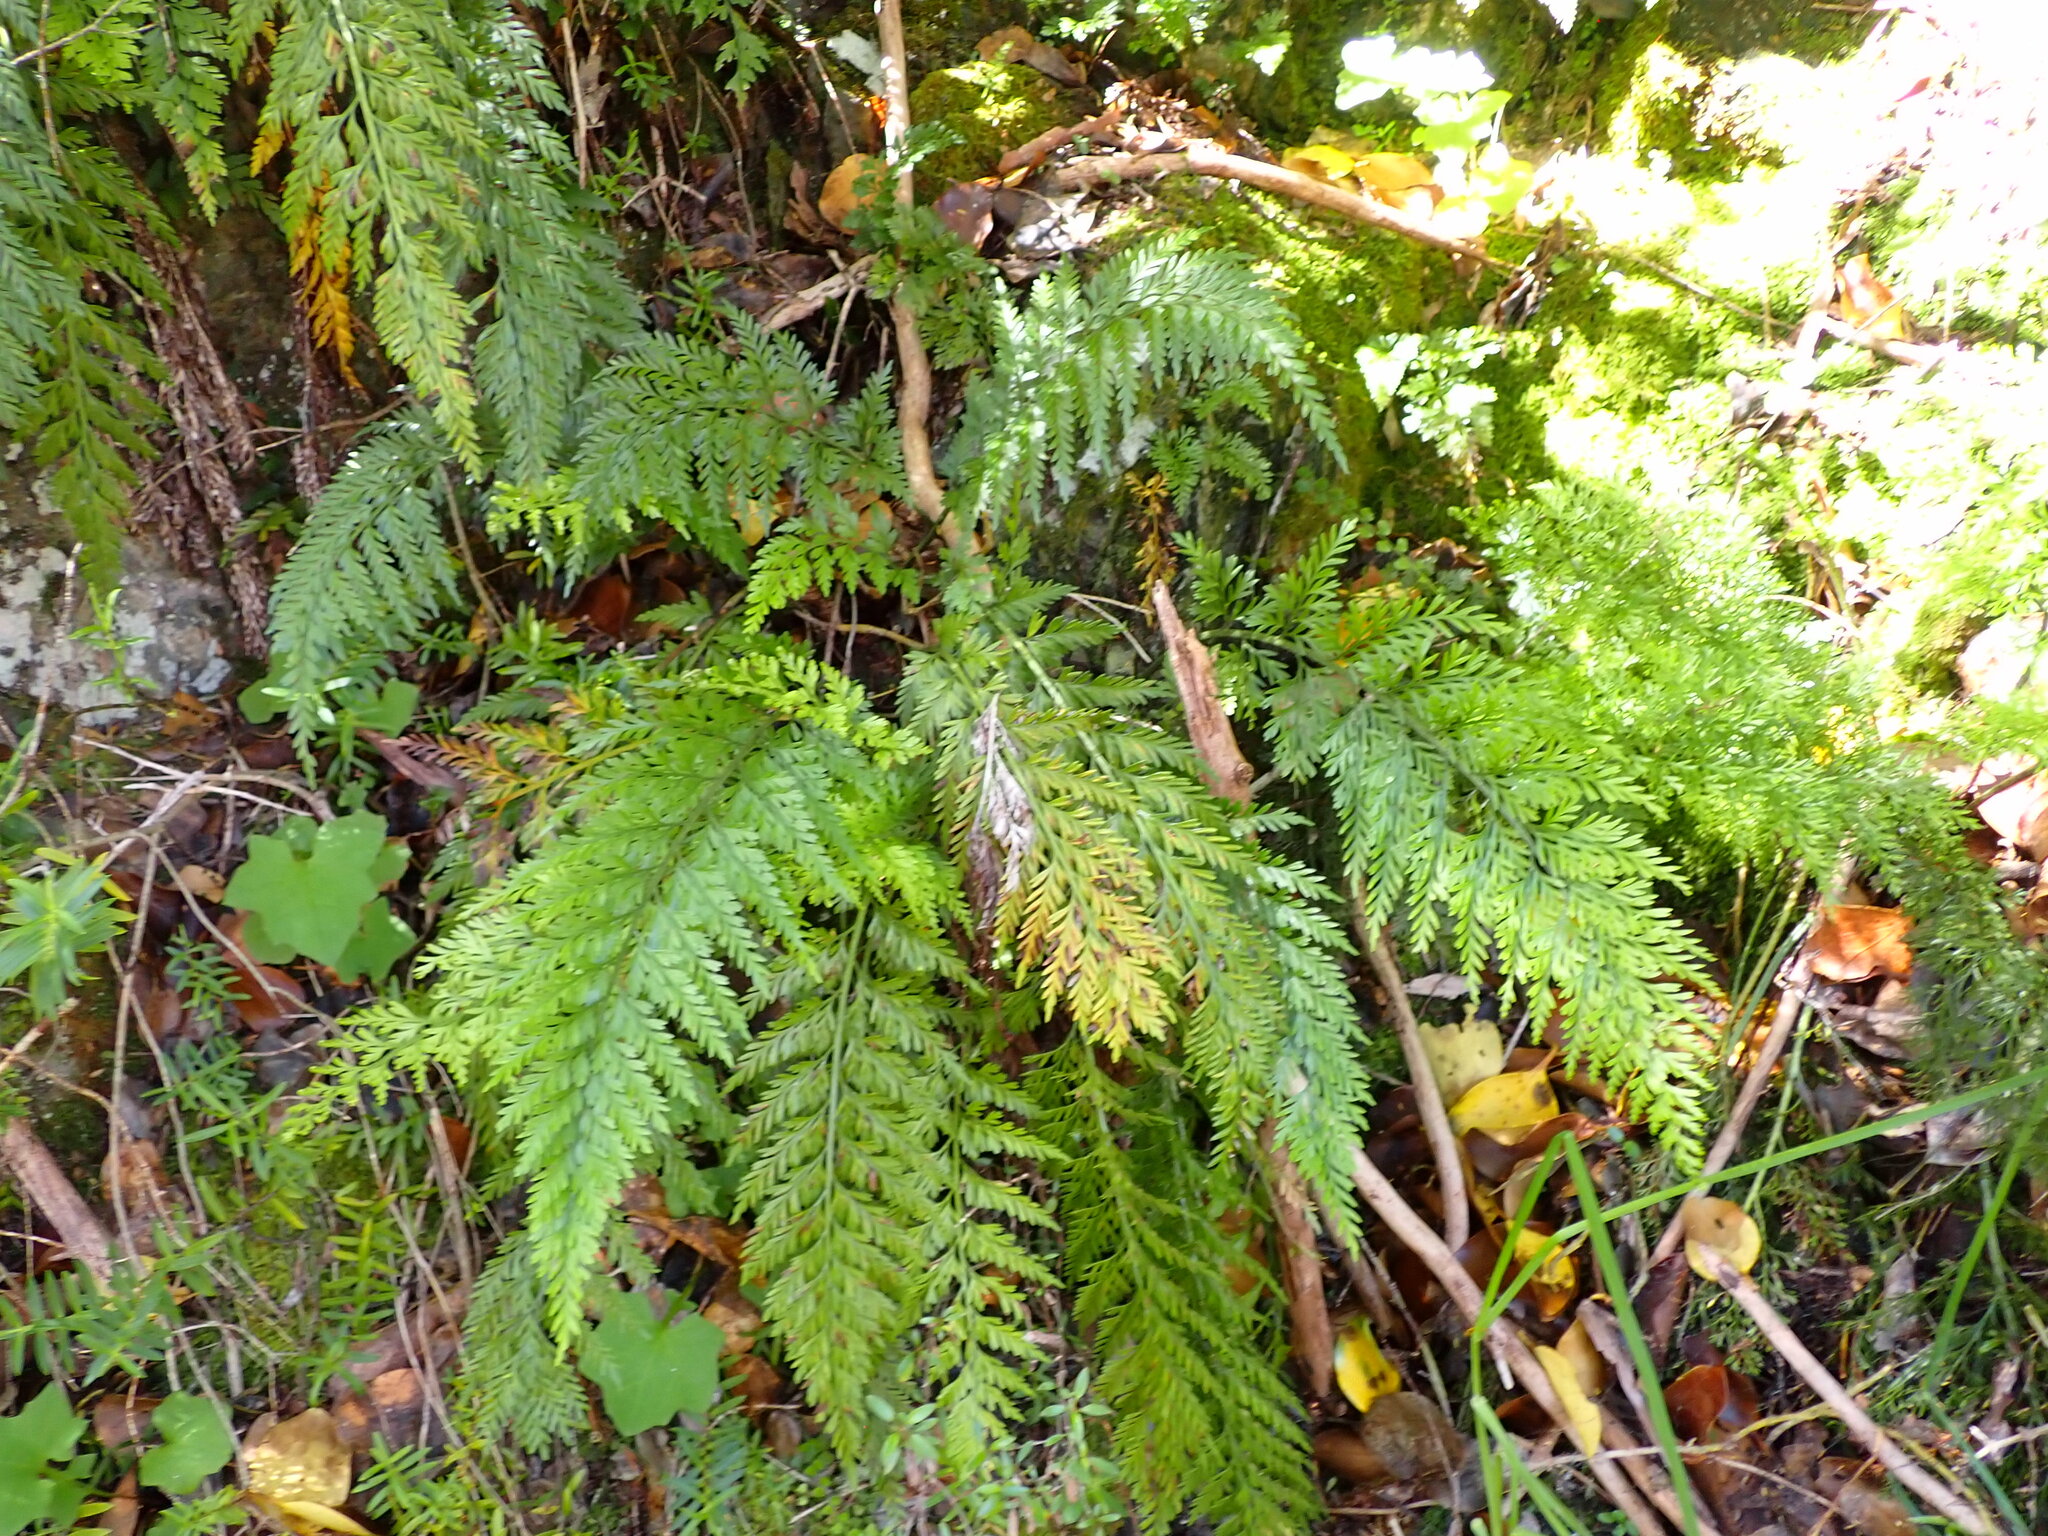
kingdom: Plantae
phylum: Tracheophyta
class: Polypodiopsida
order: Polypodiales
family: Aspleniaceae
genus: Asplenium
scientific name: Asplenium appendiculatum
